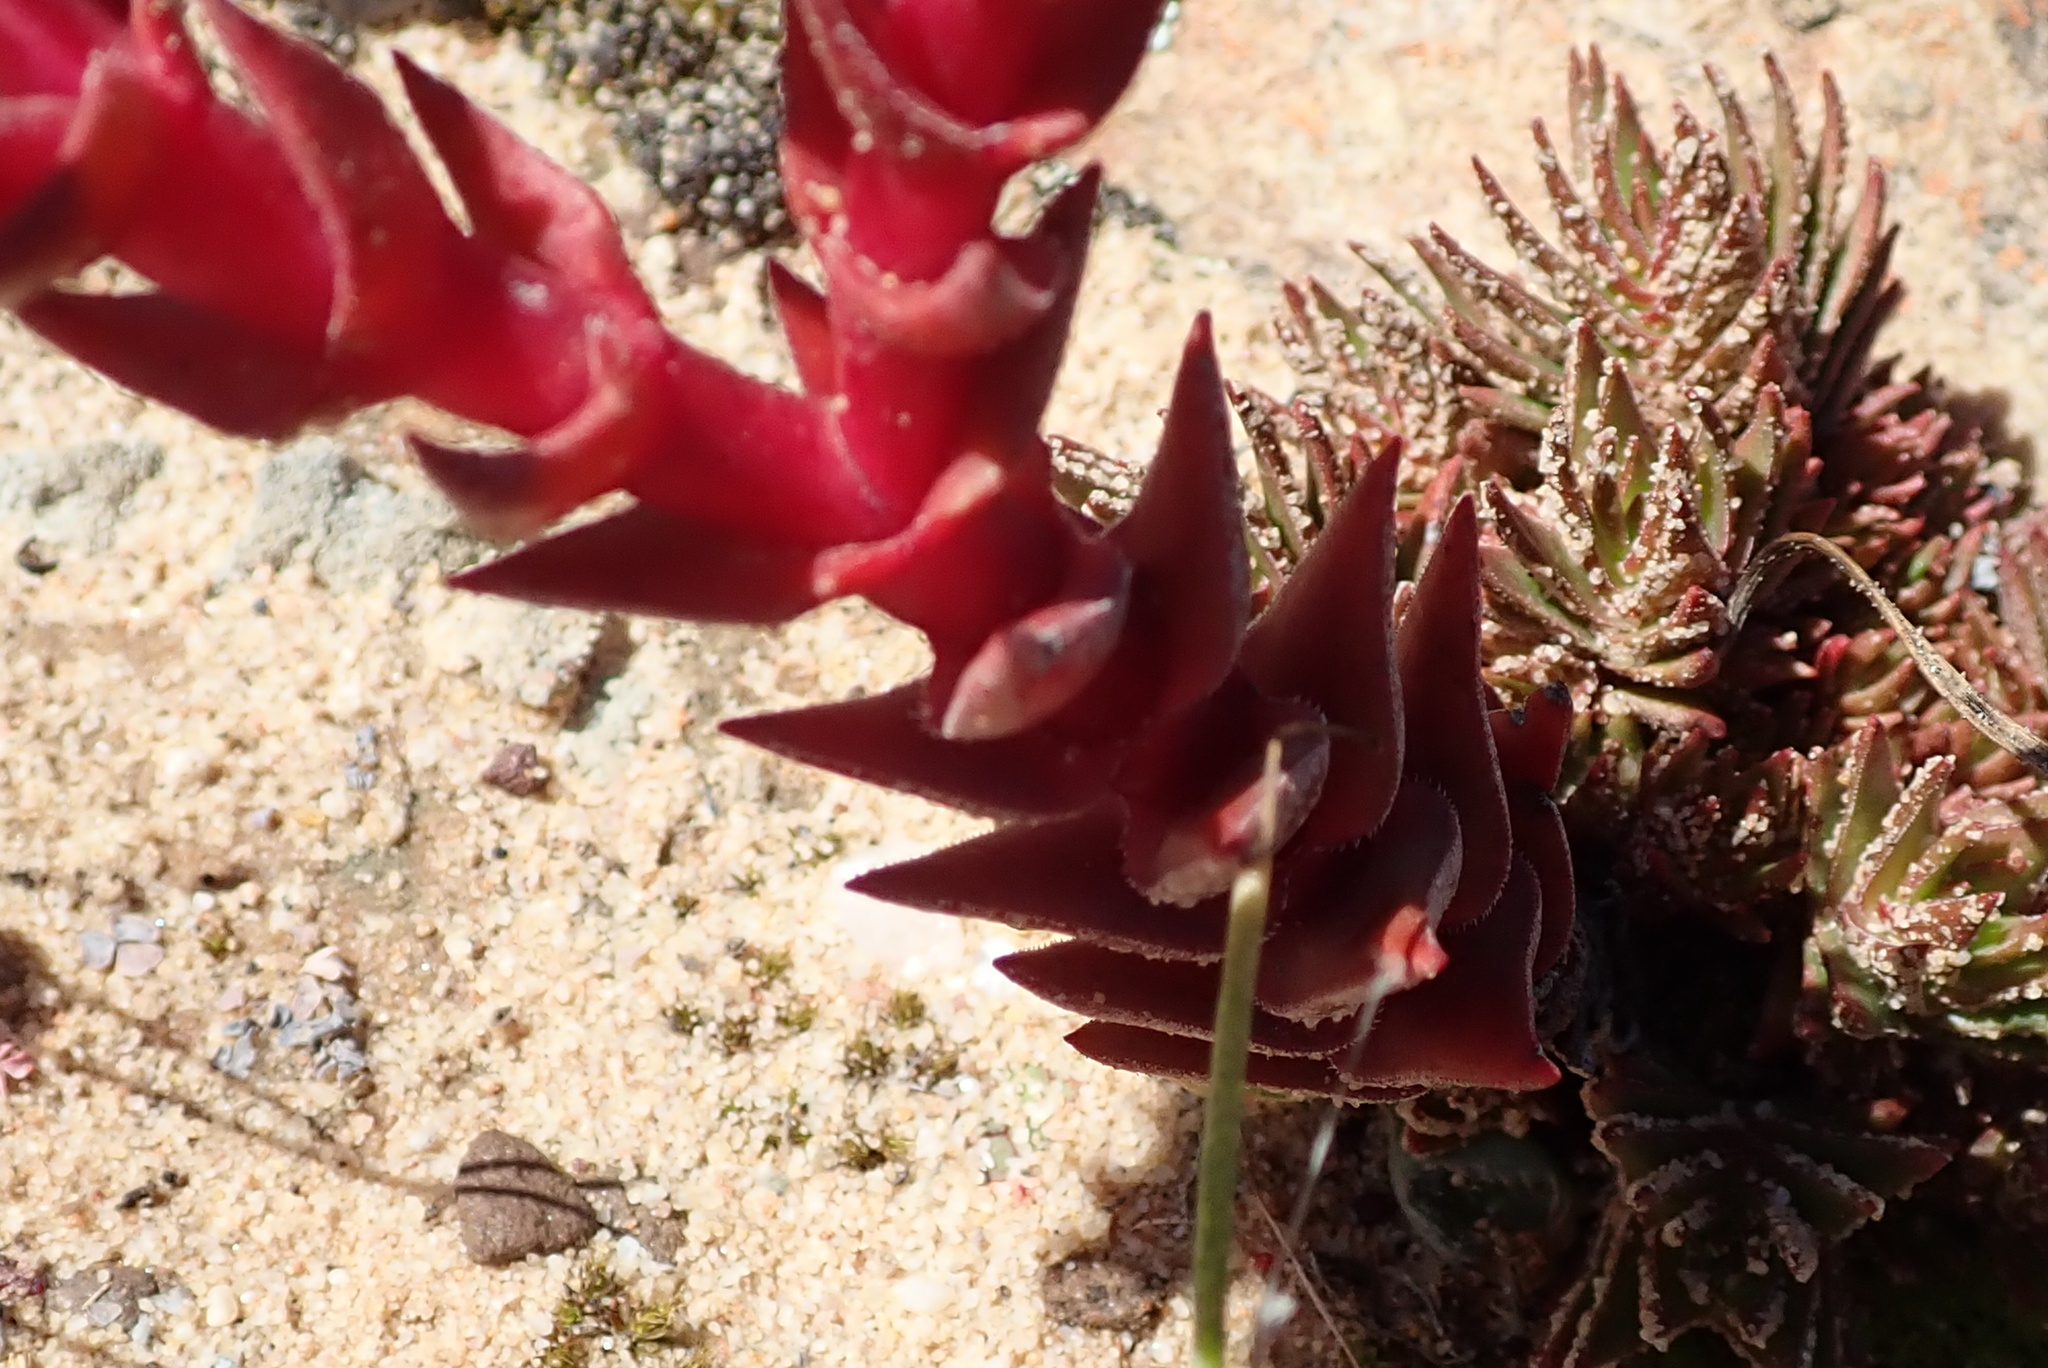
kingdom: Plantae
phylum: Tracheophyta
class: Magnoliopsida
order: Saxifragales
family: Crassulaceae
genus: Crassula
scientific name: Crassula alpestris
